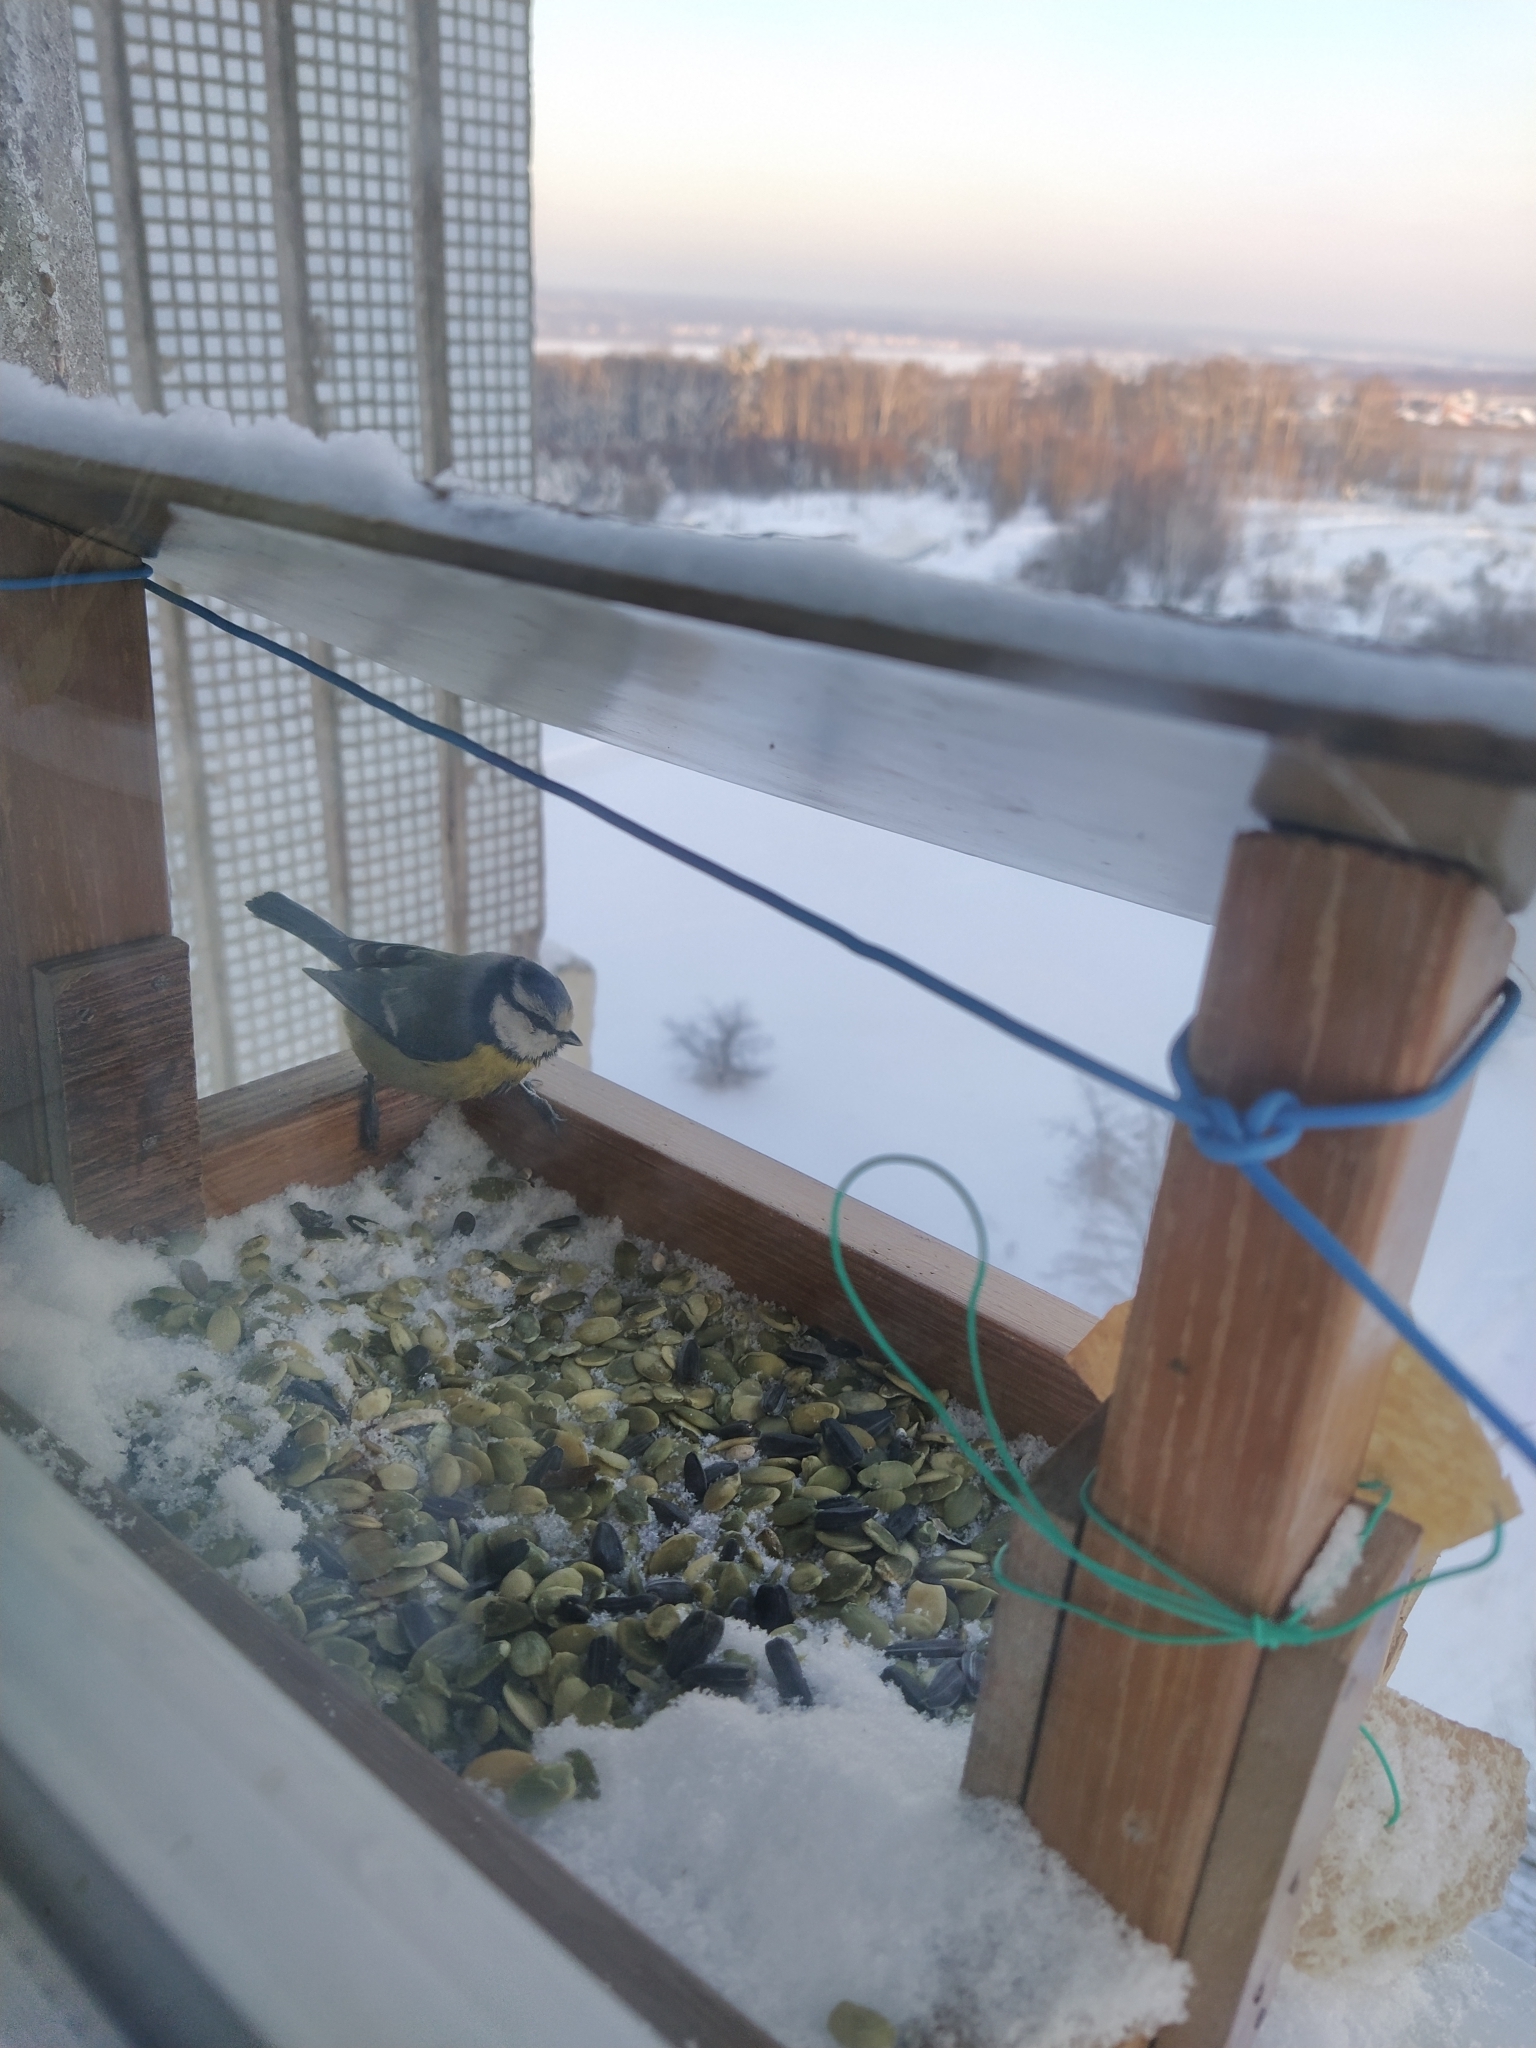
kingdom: Animalia
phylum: Chordata
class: Aves
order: Passeriformes
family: Paridae
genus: Cyanistes
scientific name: Cyanistes caeruleus
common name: Eurasian blue tit
